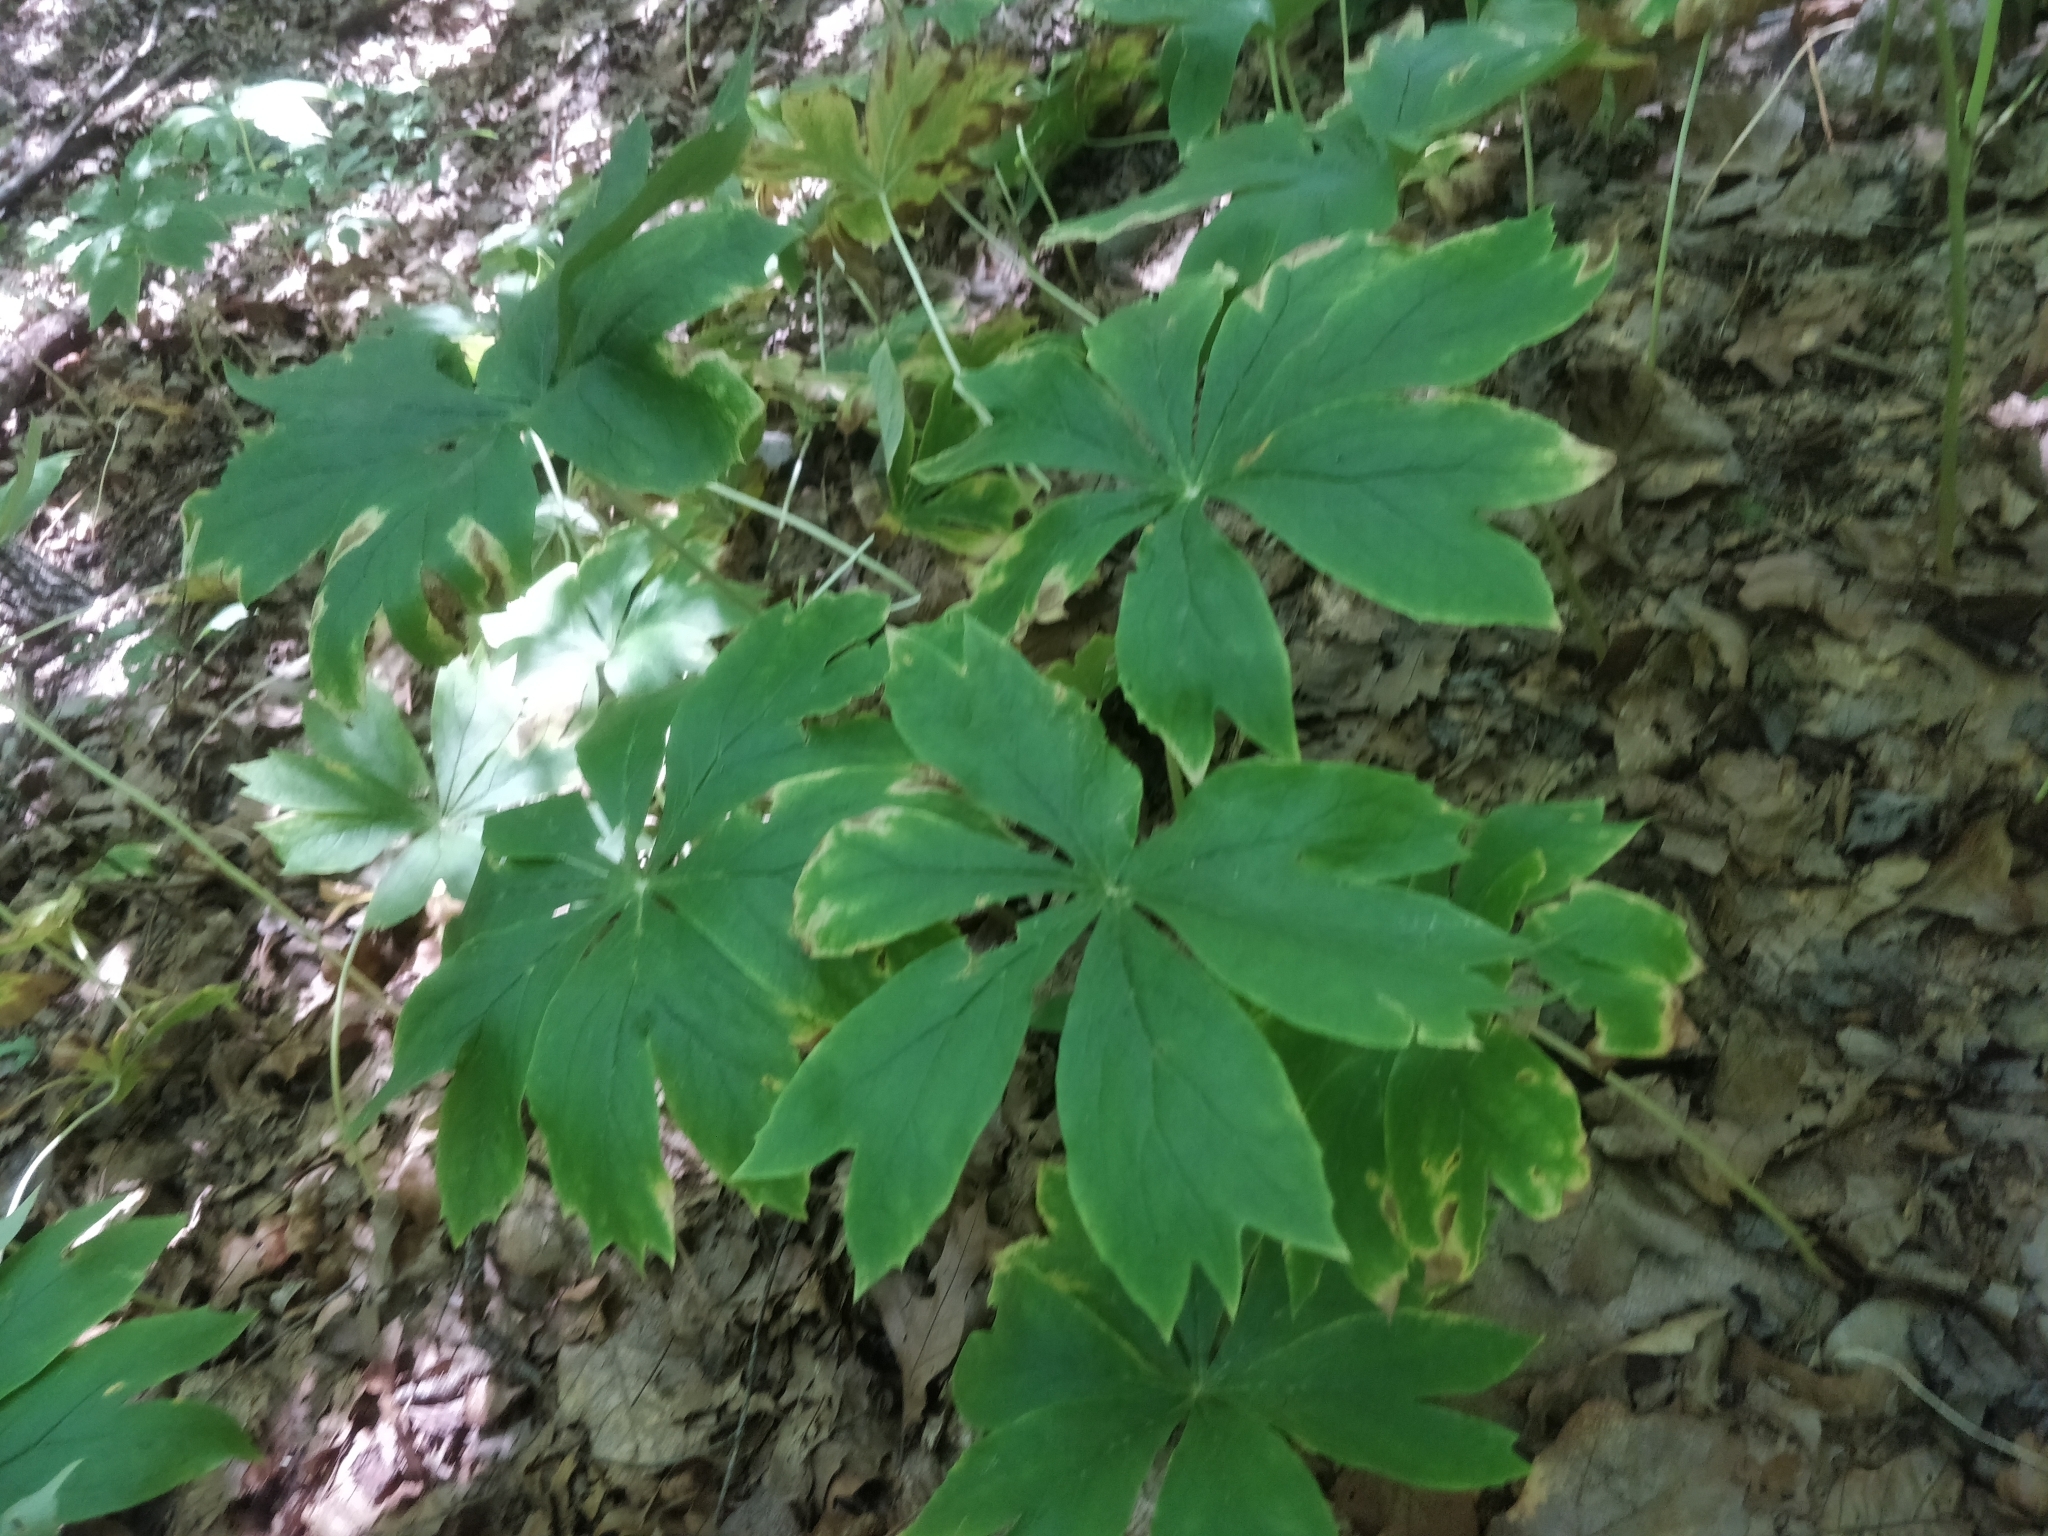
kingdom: Plantae
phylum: Tracheophyta
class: Magnoliopsida
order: Ranunculales
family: Berberidaceae
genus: Podophyllum
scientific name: Podophyllum peltatum
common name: Wild mandrake
